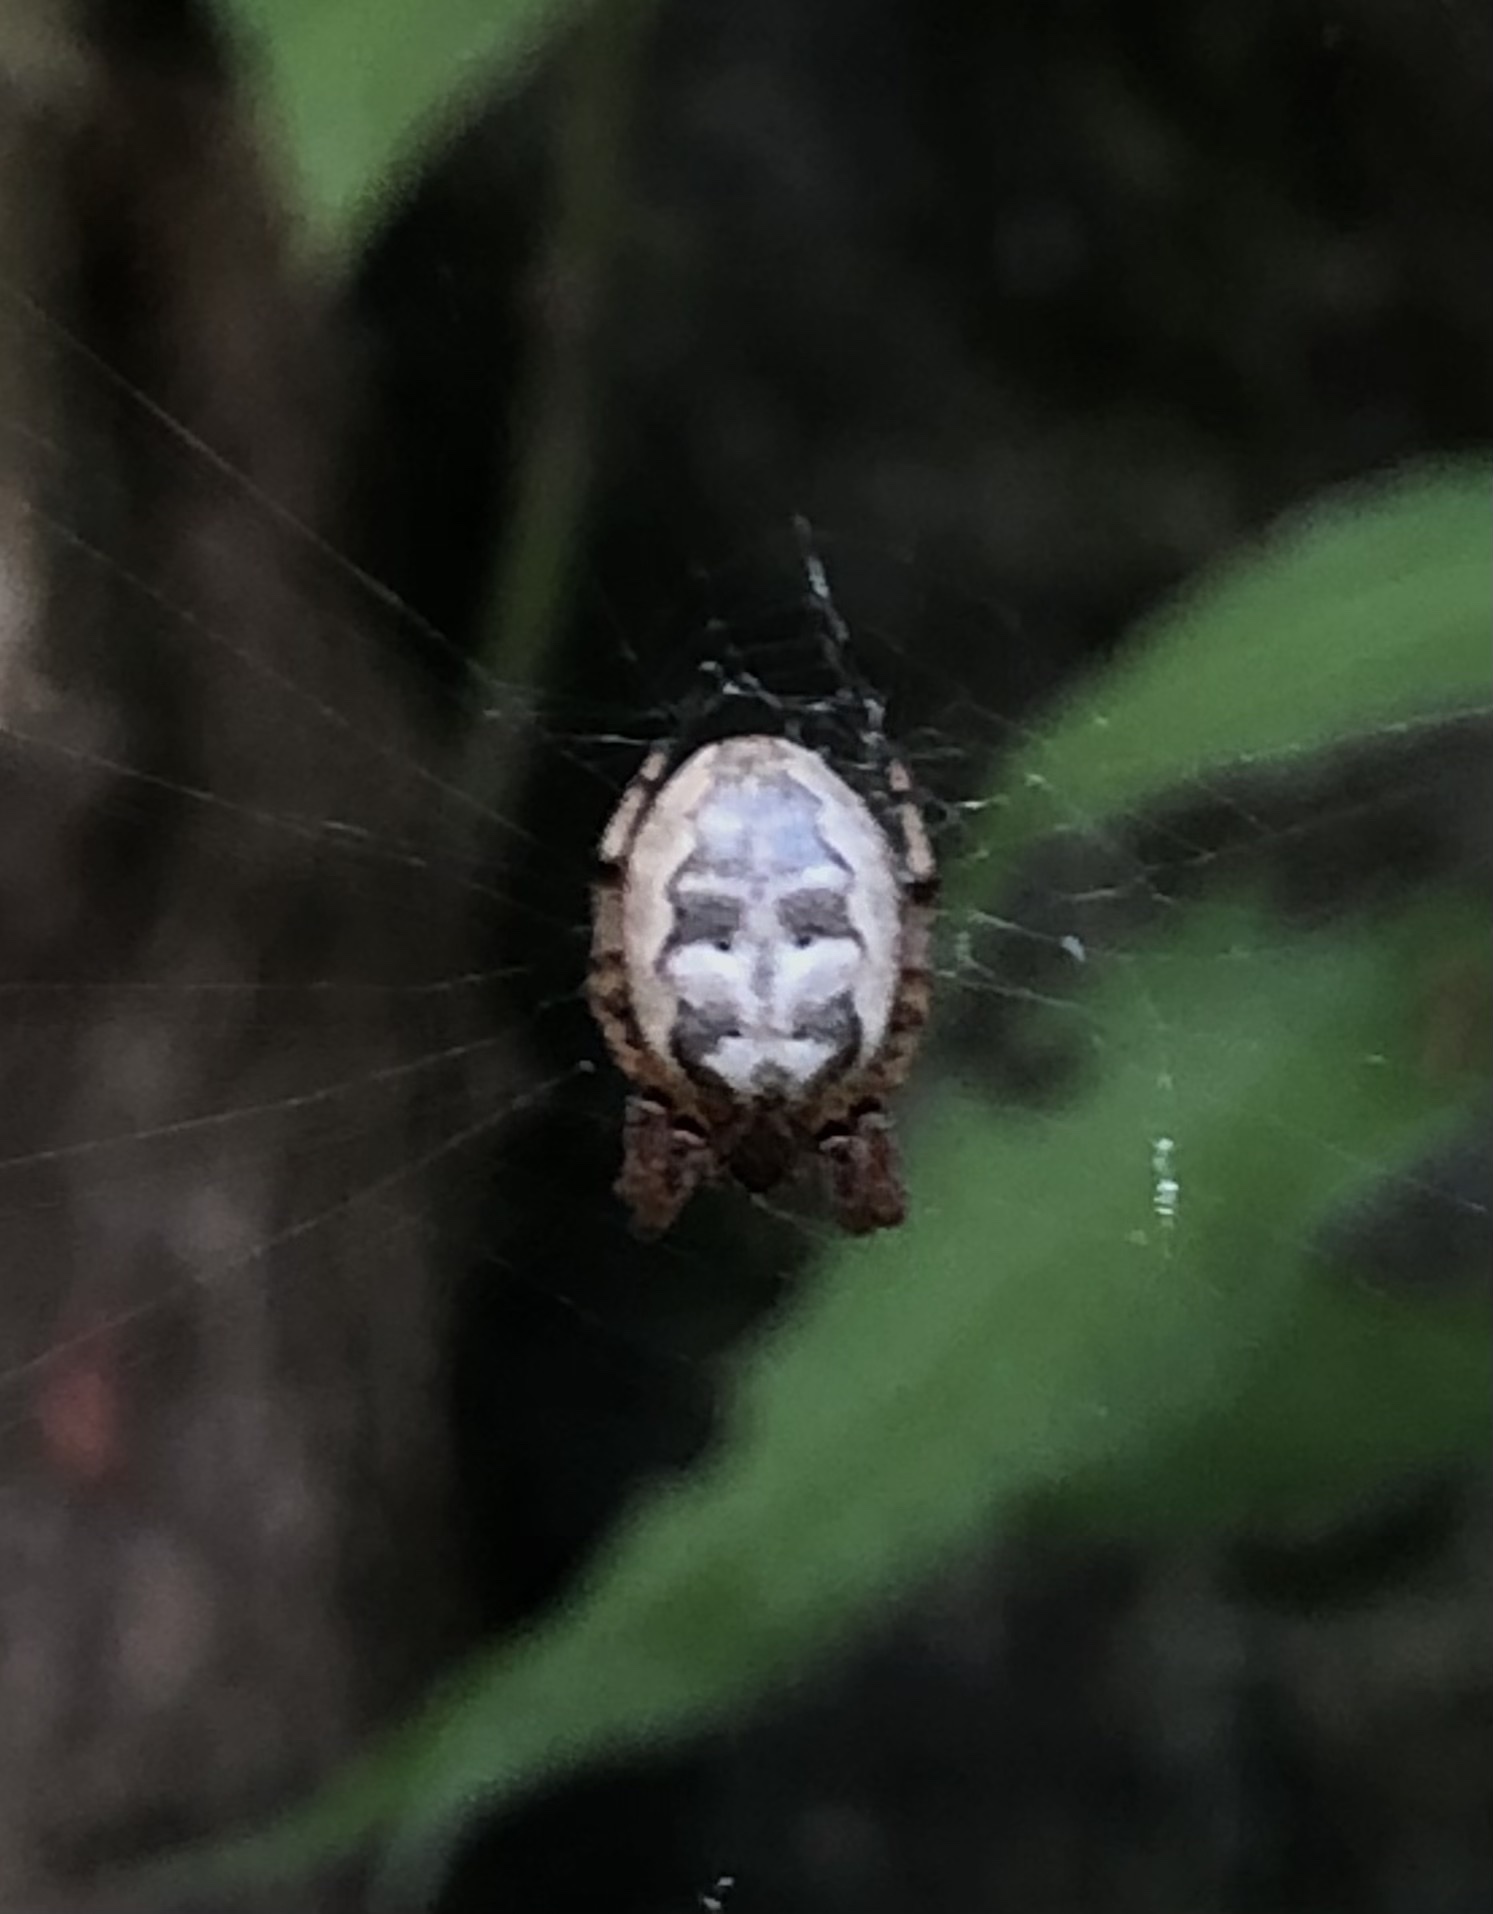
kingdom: Animalia
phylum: Arthropoda
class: Arachnida
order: Araneae
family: Araneidae
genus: Larinioides
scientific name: Larinioides cornutus
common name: Furrow orbweaver
